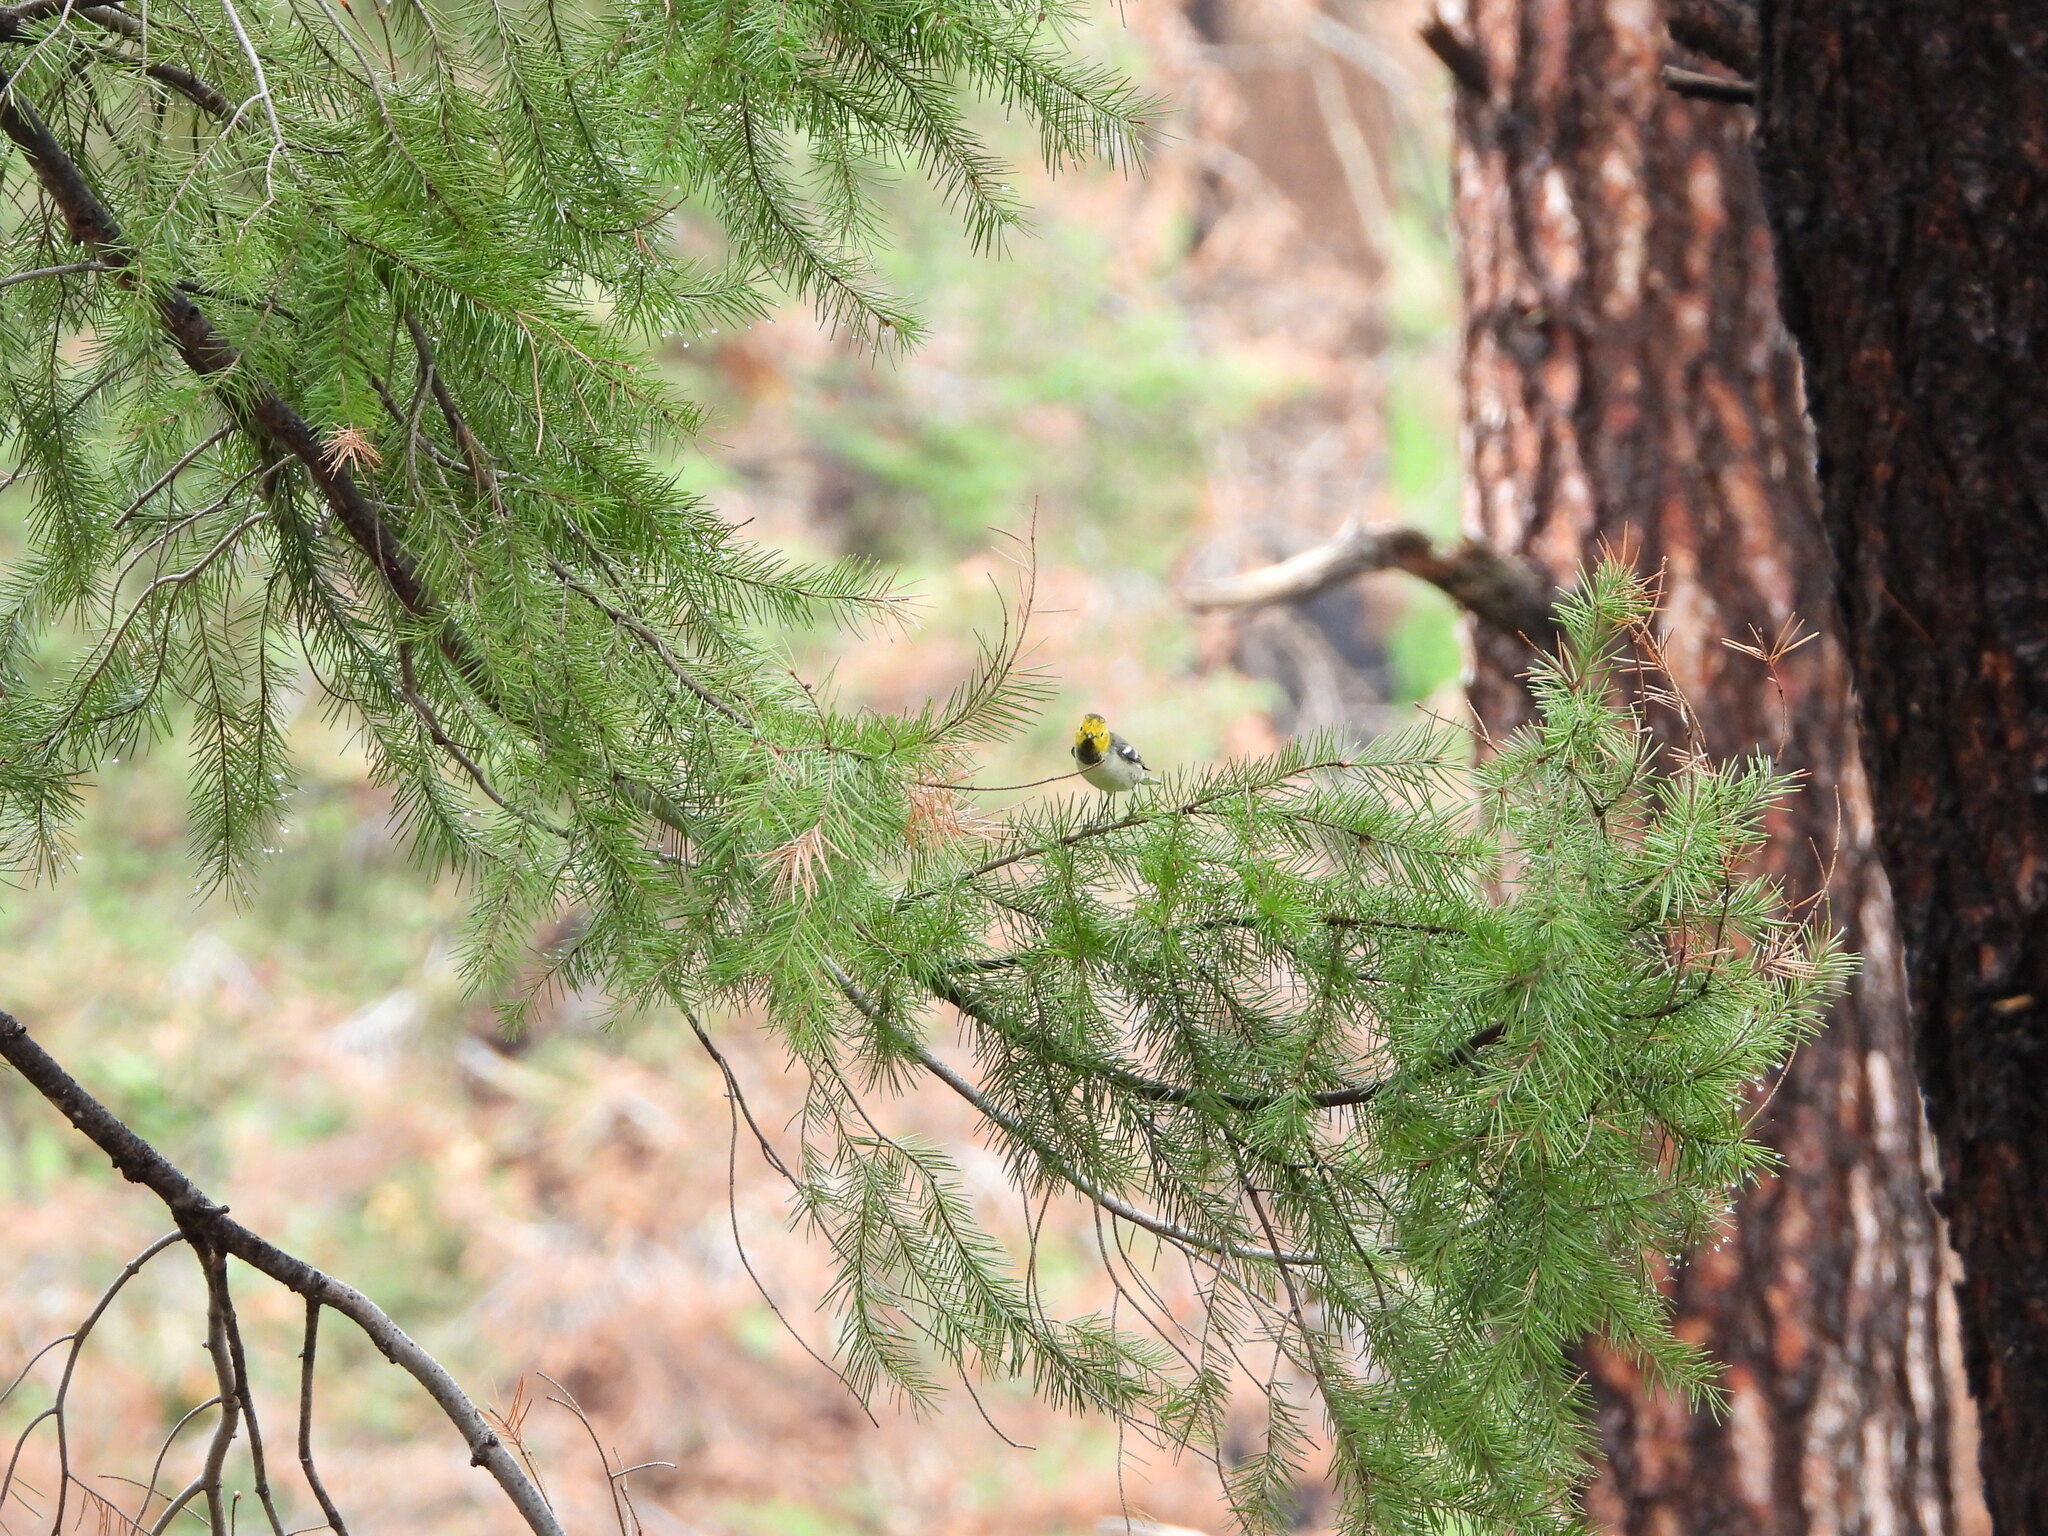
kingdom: Animalia
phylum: Chordata
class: Aves
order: Passeriformes
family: Parulidae
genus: Setophaga
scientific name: Setophaga occidentalis
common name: Hermit warbler
